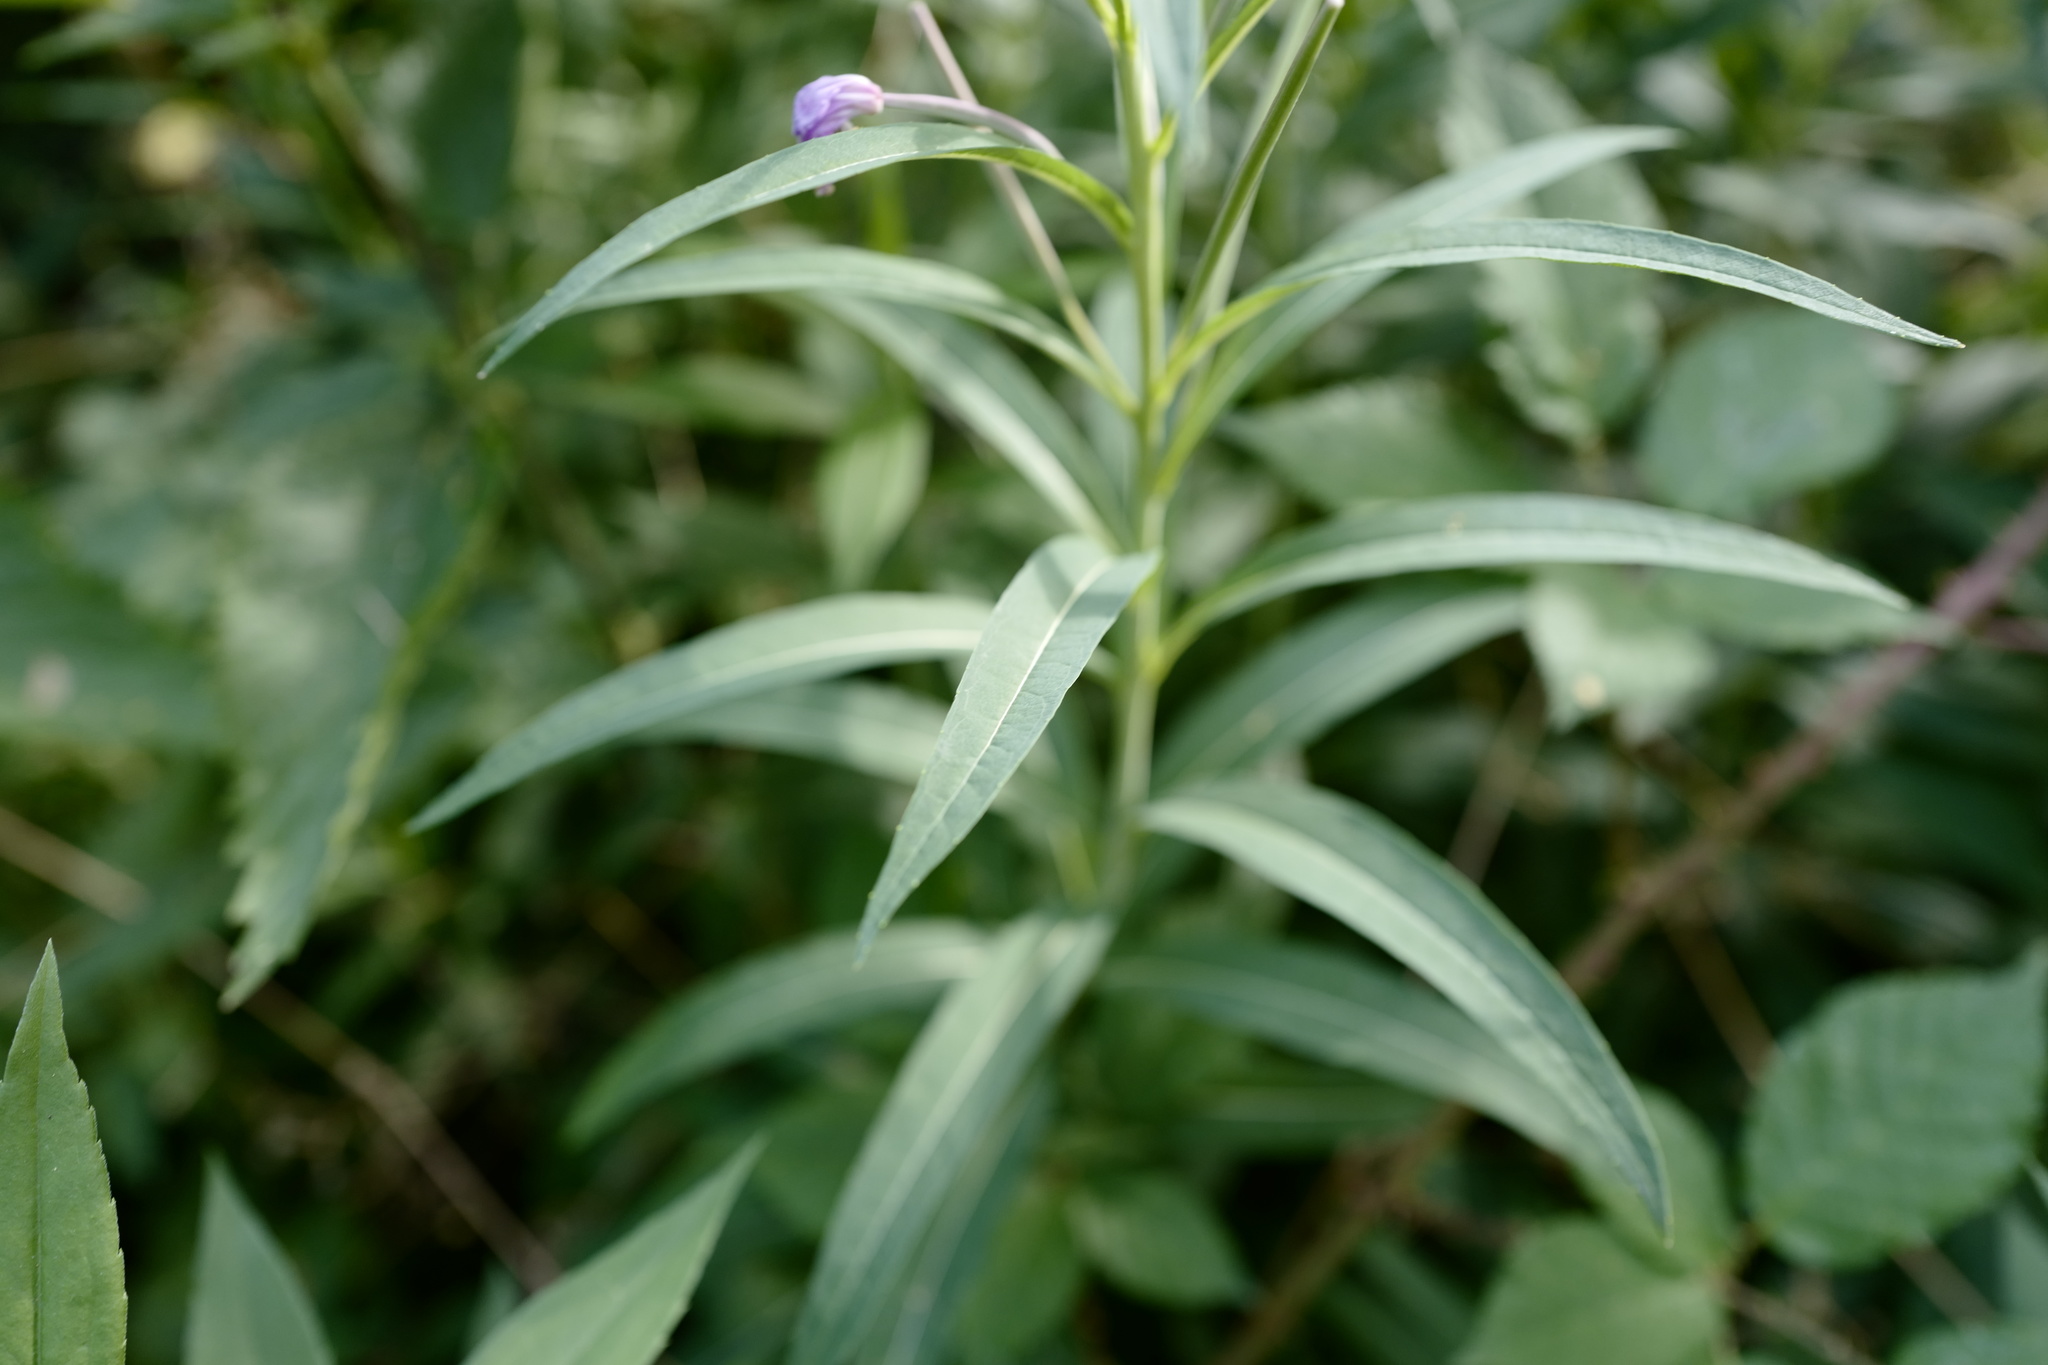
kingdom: Plantae
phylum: Tracheophyta
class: Magnoliopsida
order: Myrtales
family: Onagraceae
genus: Chamaenerion
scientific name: Chamaenerion angustifolium
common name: Fireweed
